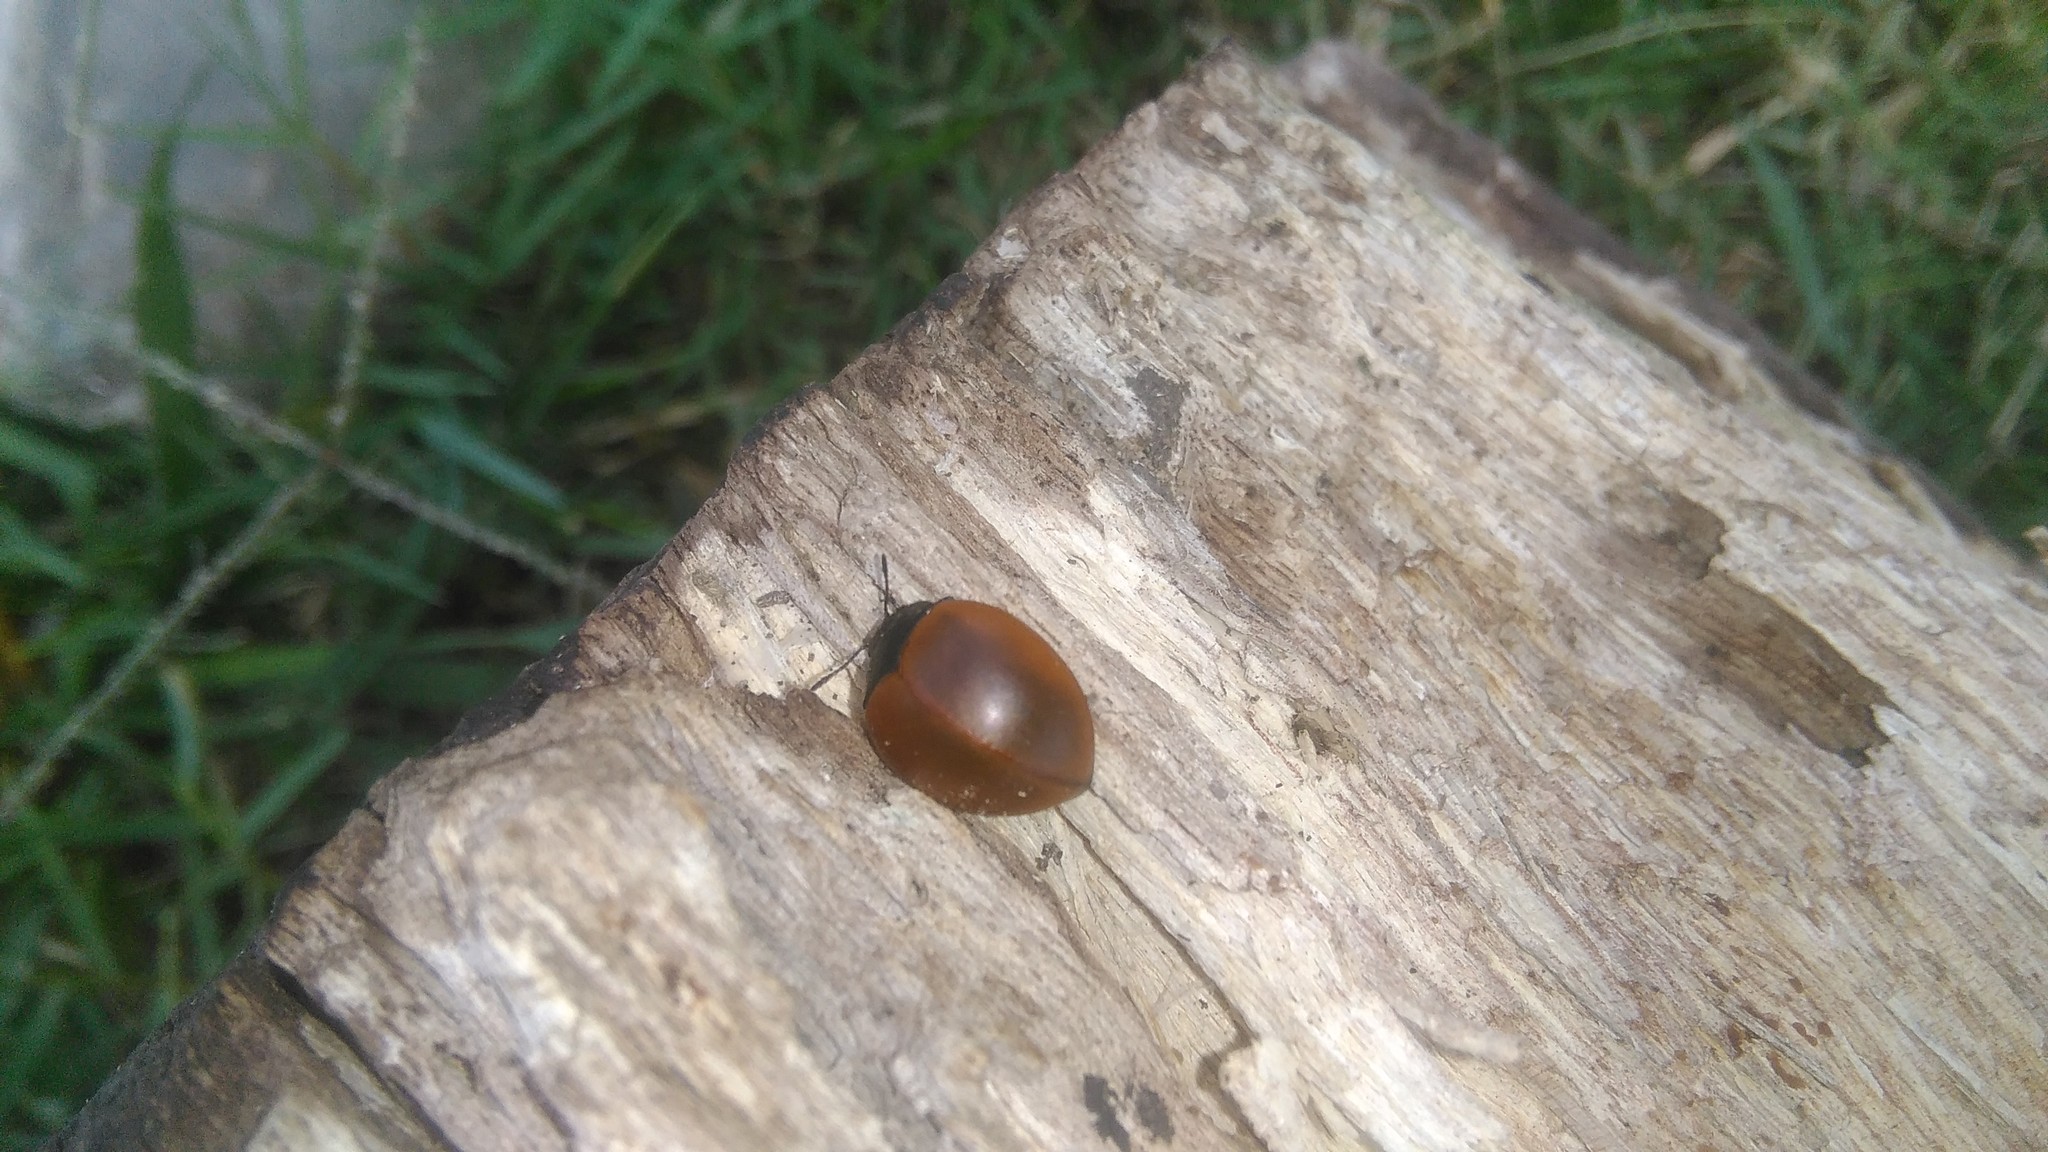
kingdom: Animalia
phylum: Arthropoda
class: Insecta
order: Coleoptera
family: Erotylidae
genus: Aegithus
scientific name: Aegithus clavicornis
